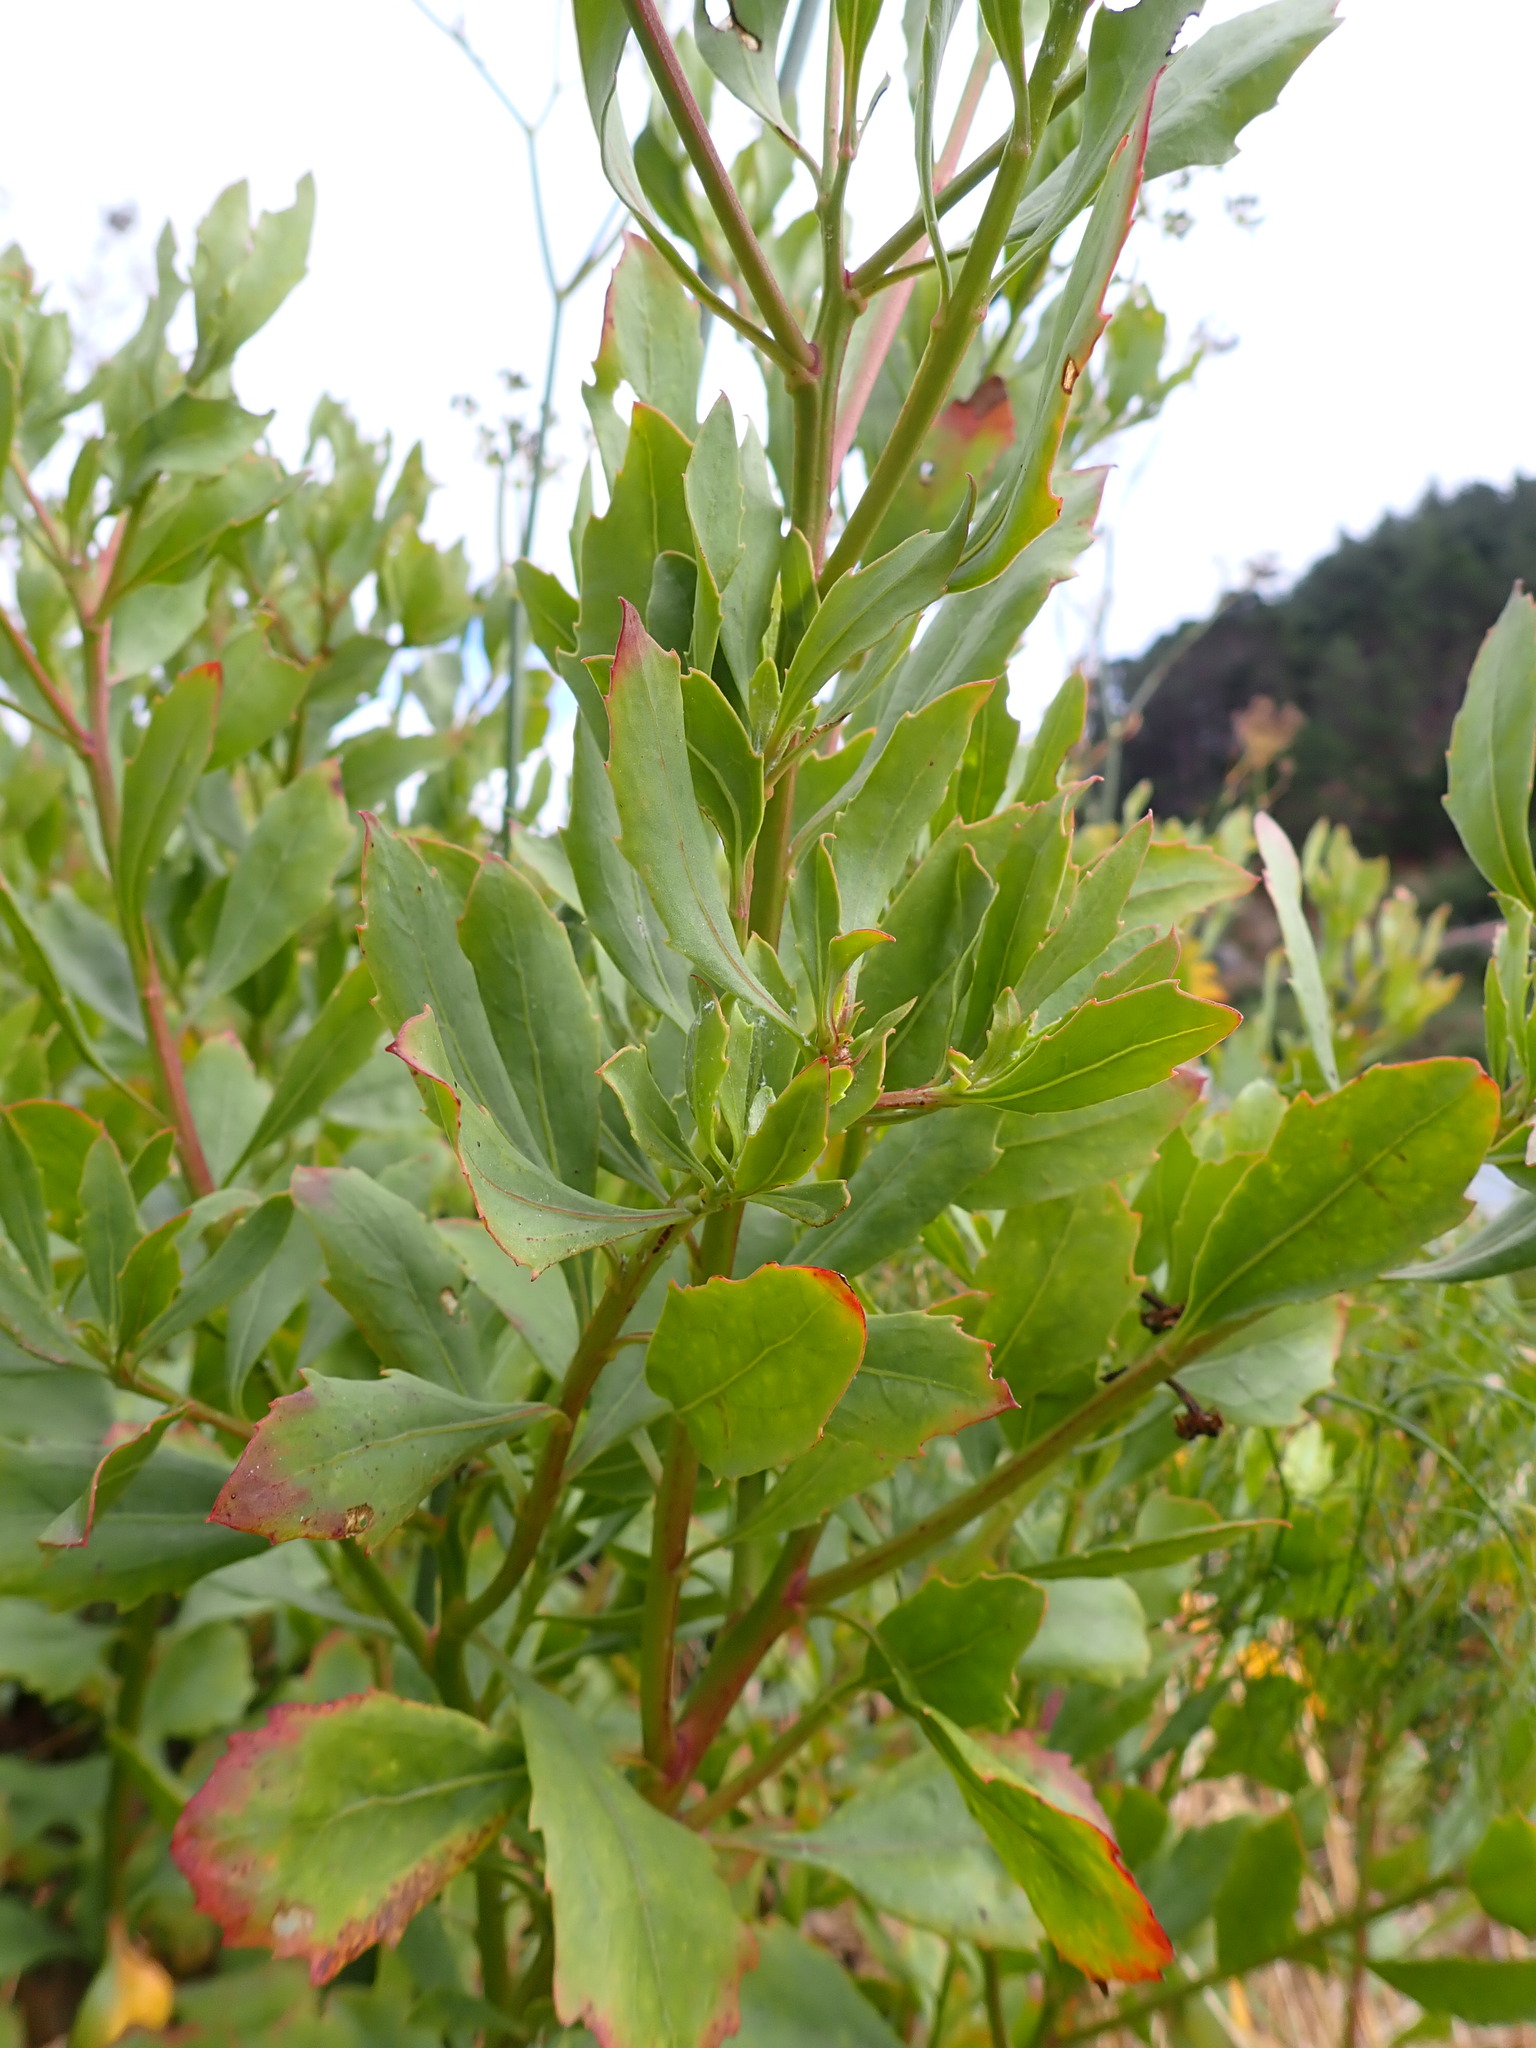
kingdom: Plantae
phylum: Tracheophyta
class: Magnoliopsida
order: Asterales
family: Asteraceae
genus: Osteospermum
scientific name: Osteospermum moniliferum
